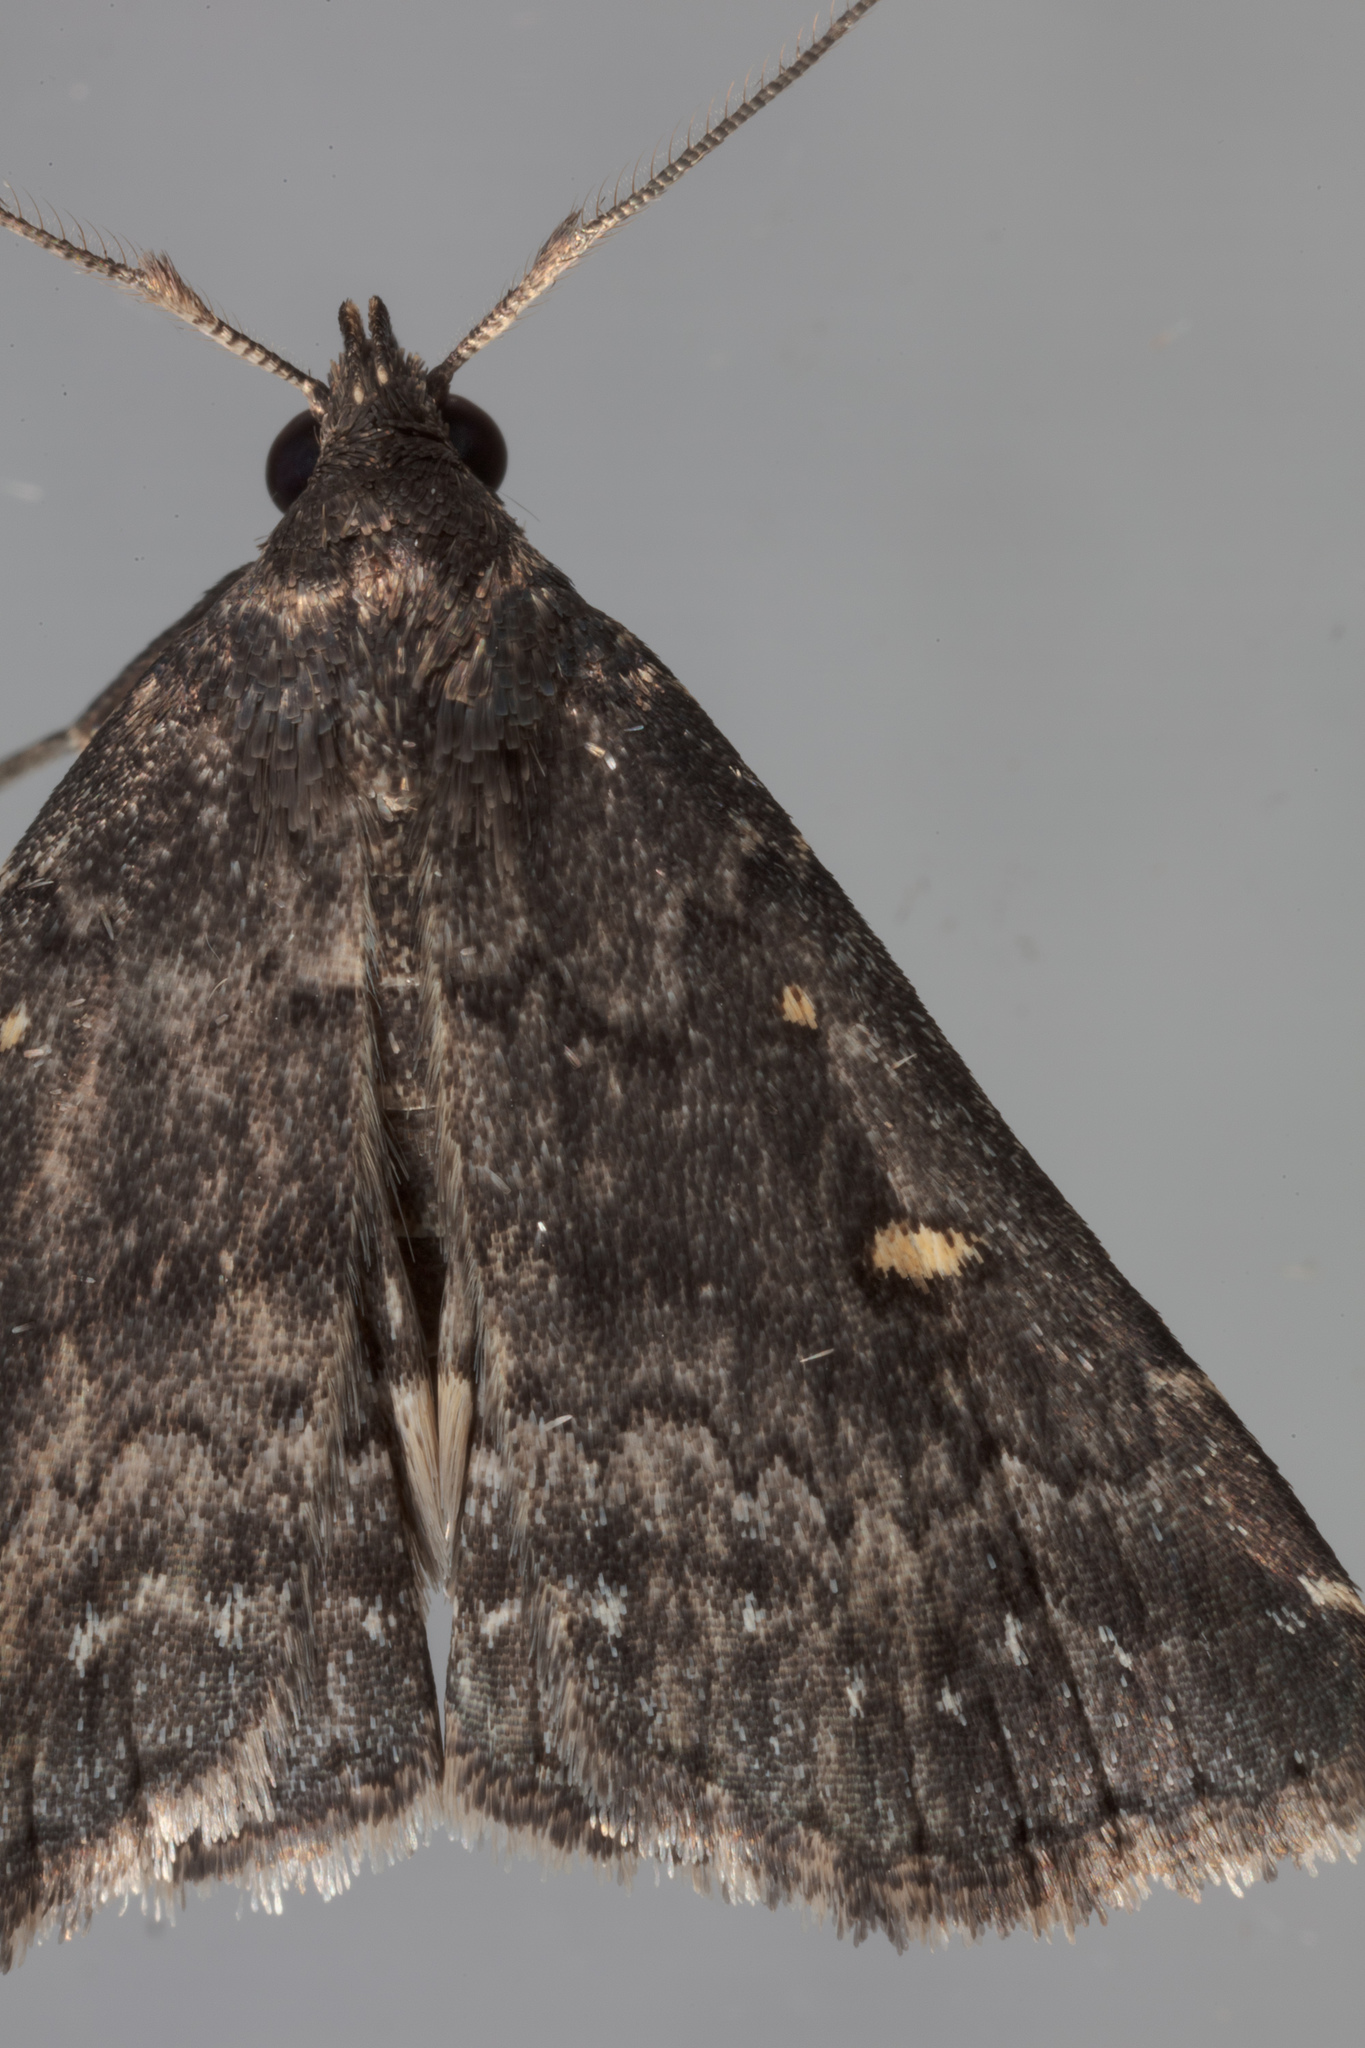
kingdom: Animalia
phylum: Arthropoda
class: Insecta
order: Lepidoptera
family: Erebidae
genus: Tetanolita
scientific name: Tetanolita mynesalis
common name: Smoky tetanolita moth
